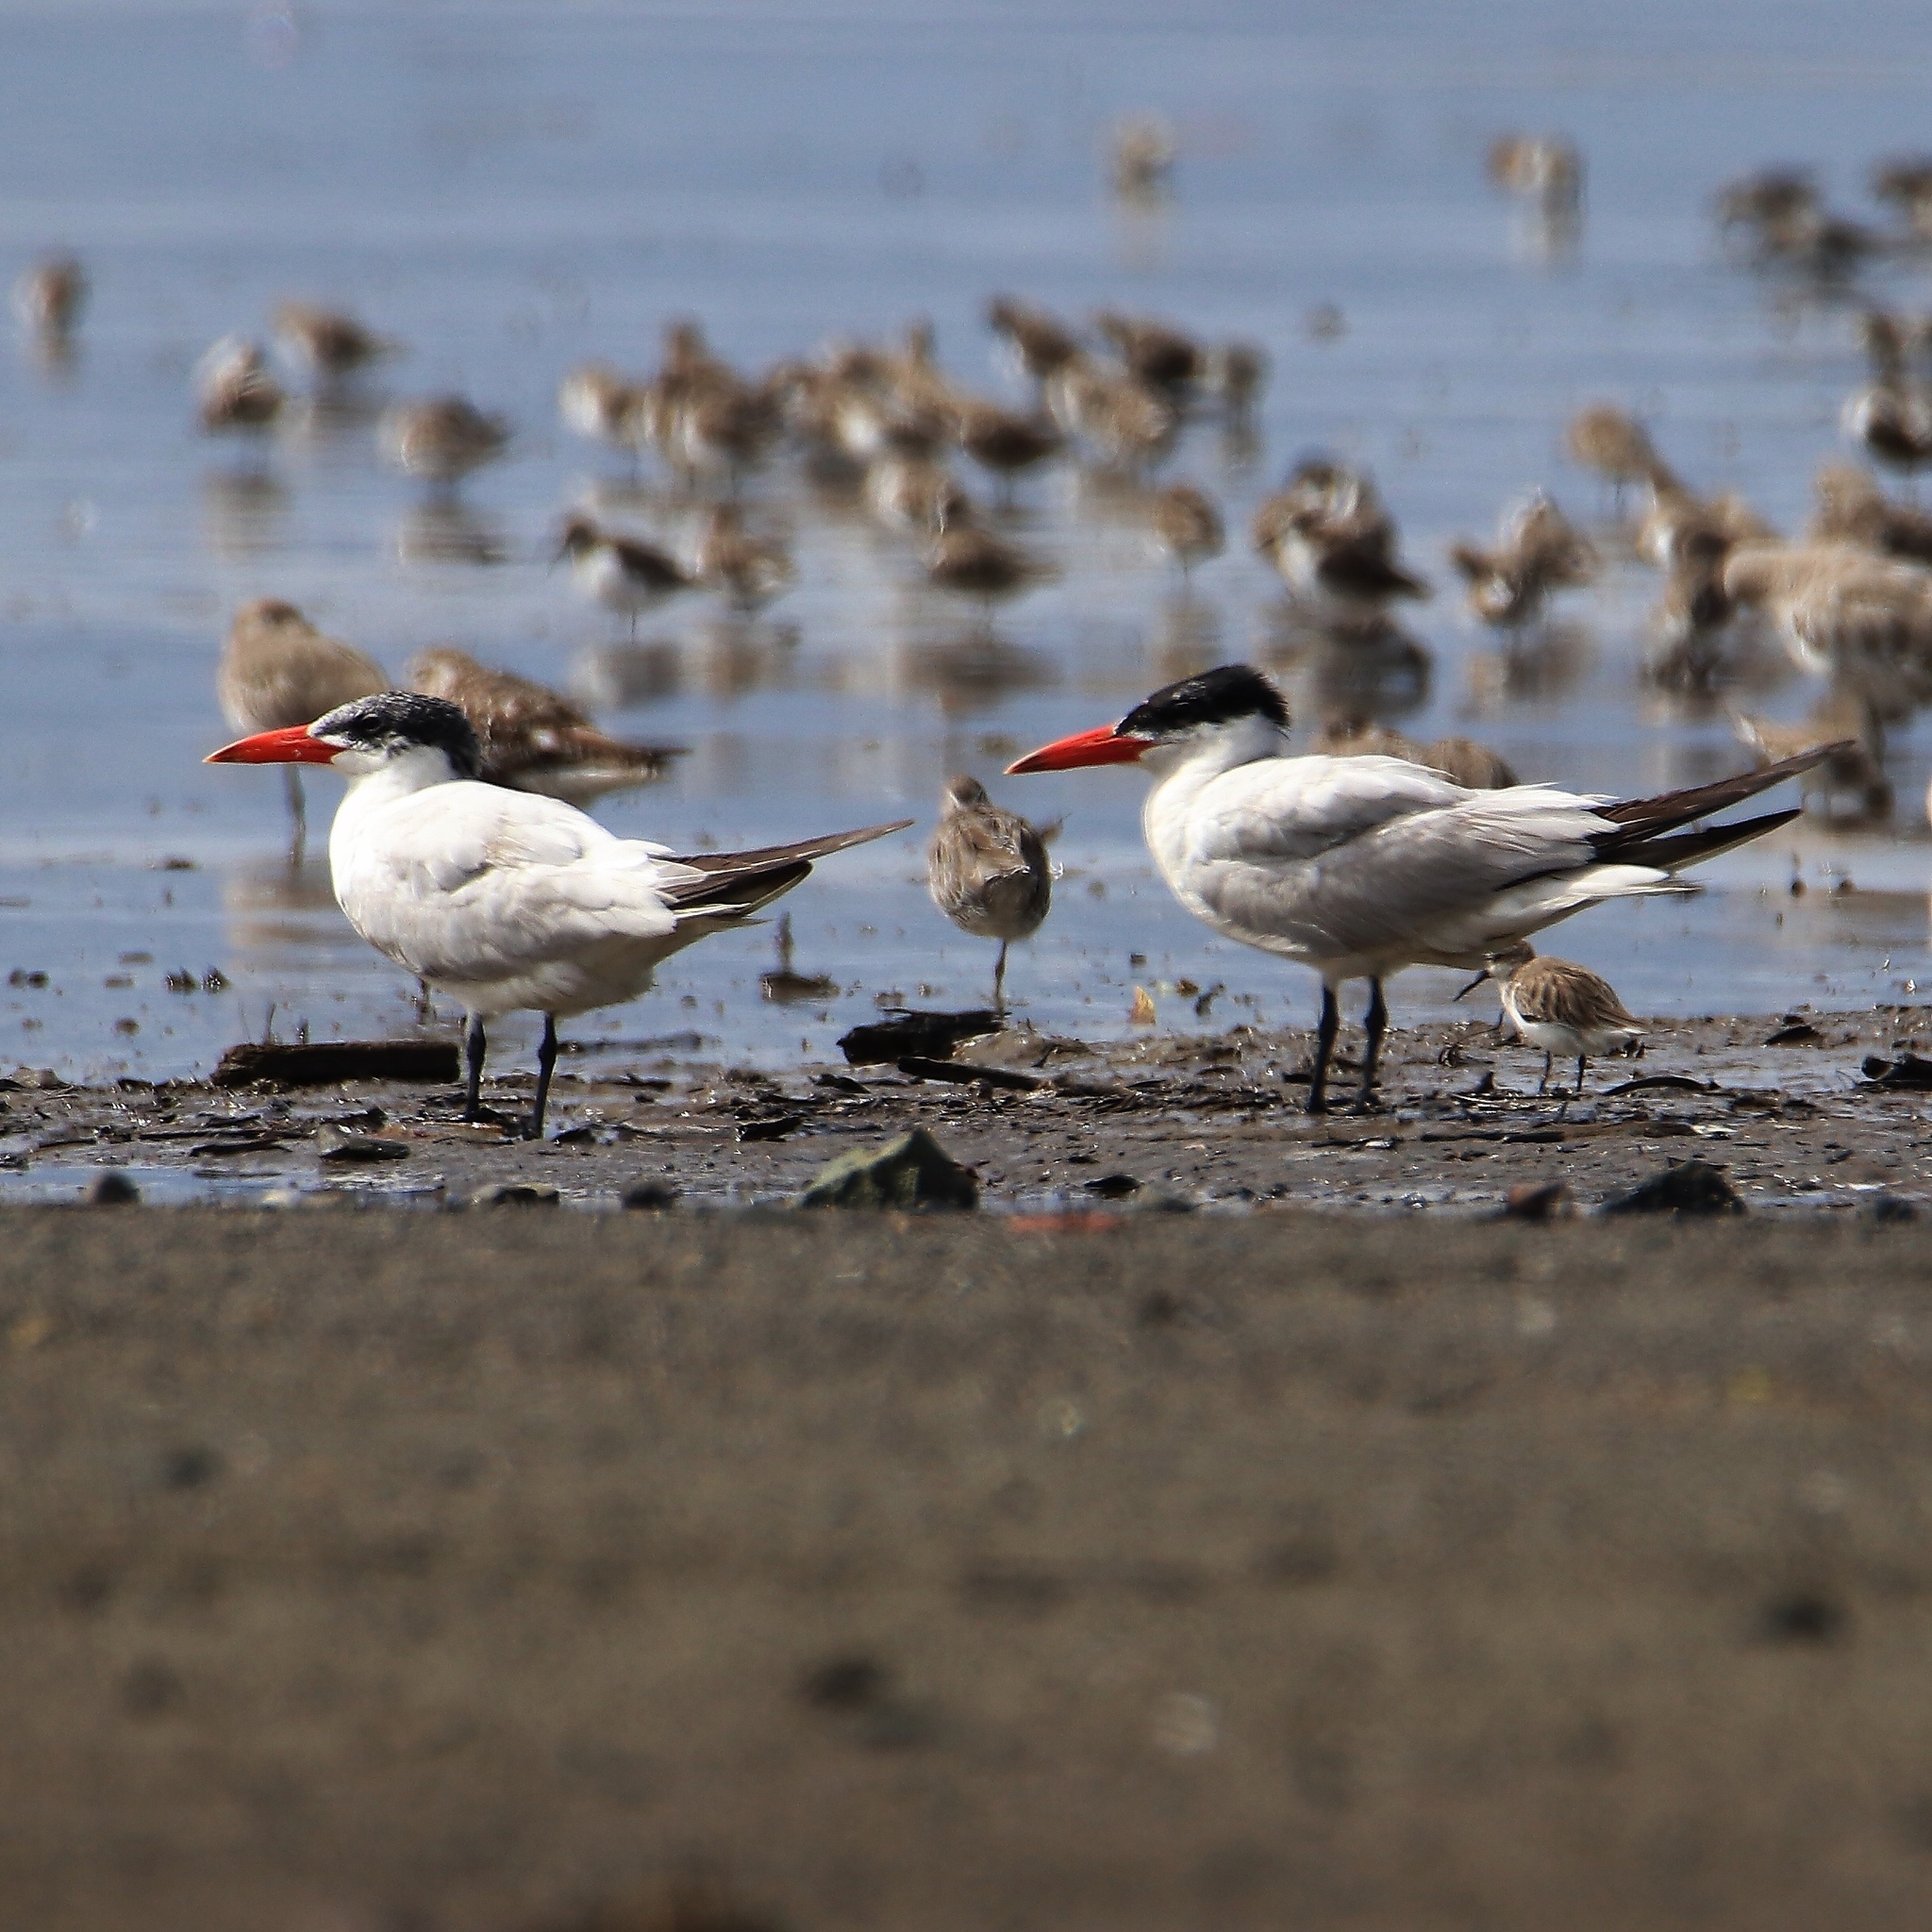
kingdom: Animalia
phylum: Chordata
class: Aves
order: Charadriiformes
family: Laridae
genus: Hydroprogne
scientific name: Hydroprogne caspia
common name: Caspian tern
